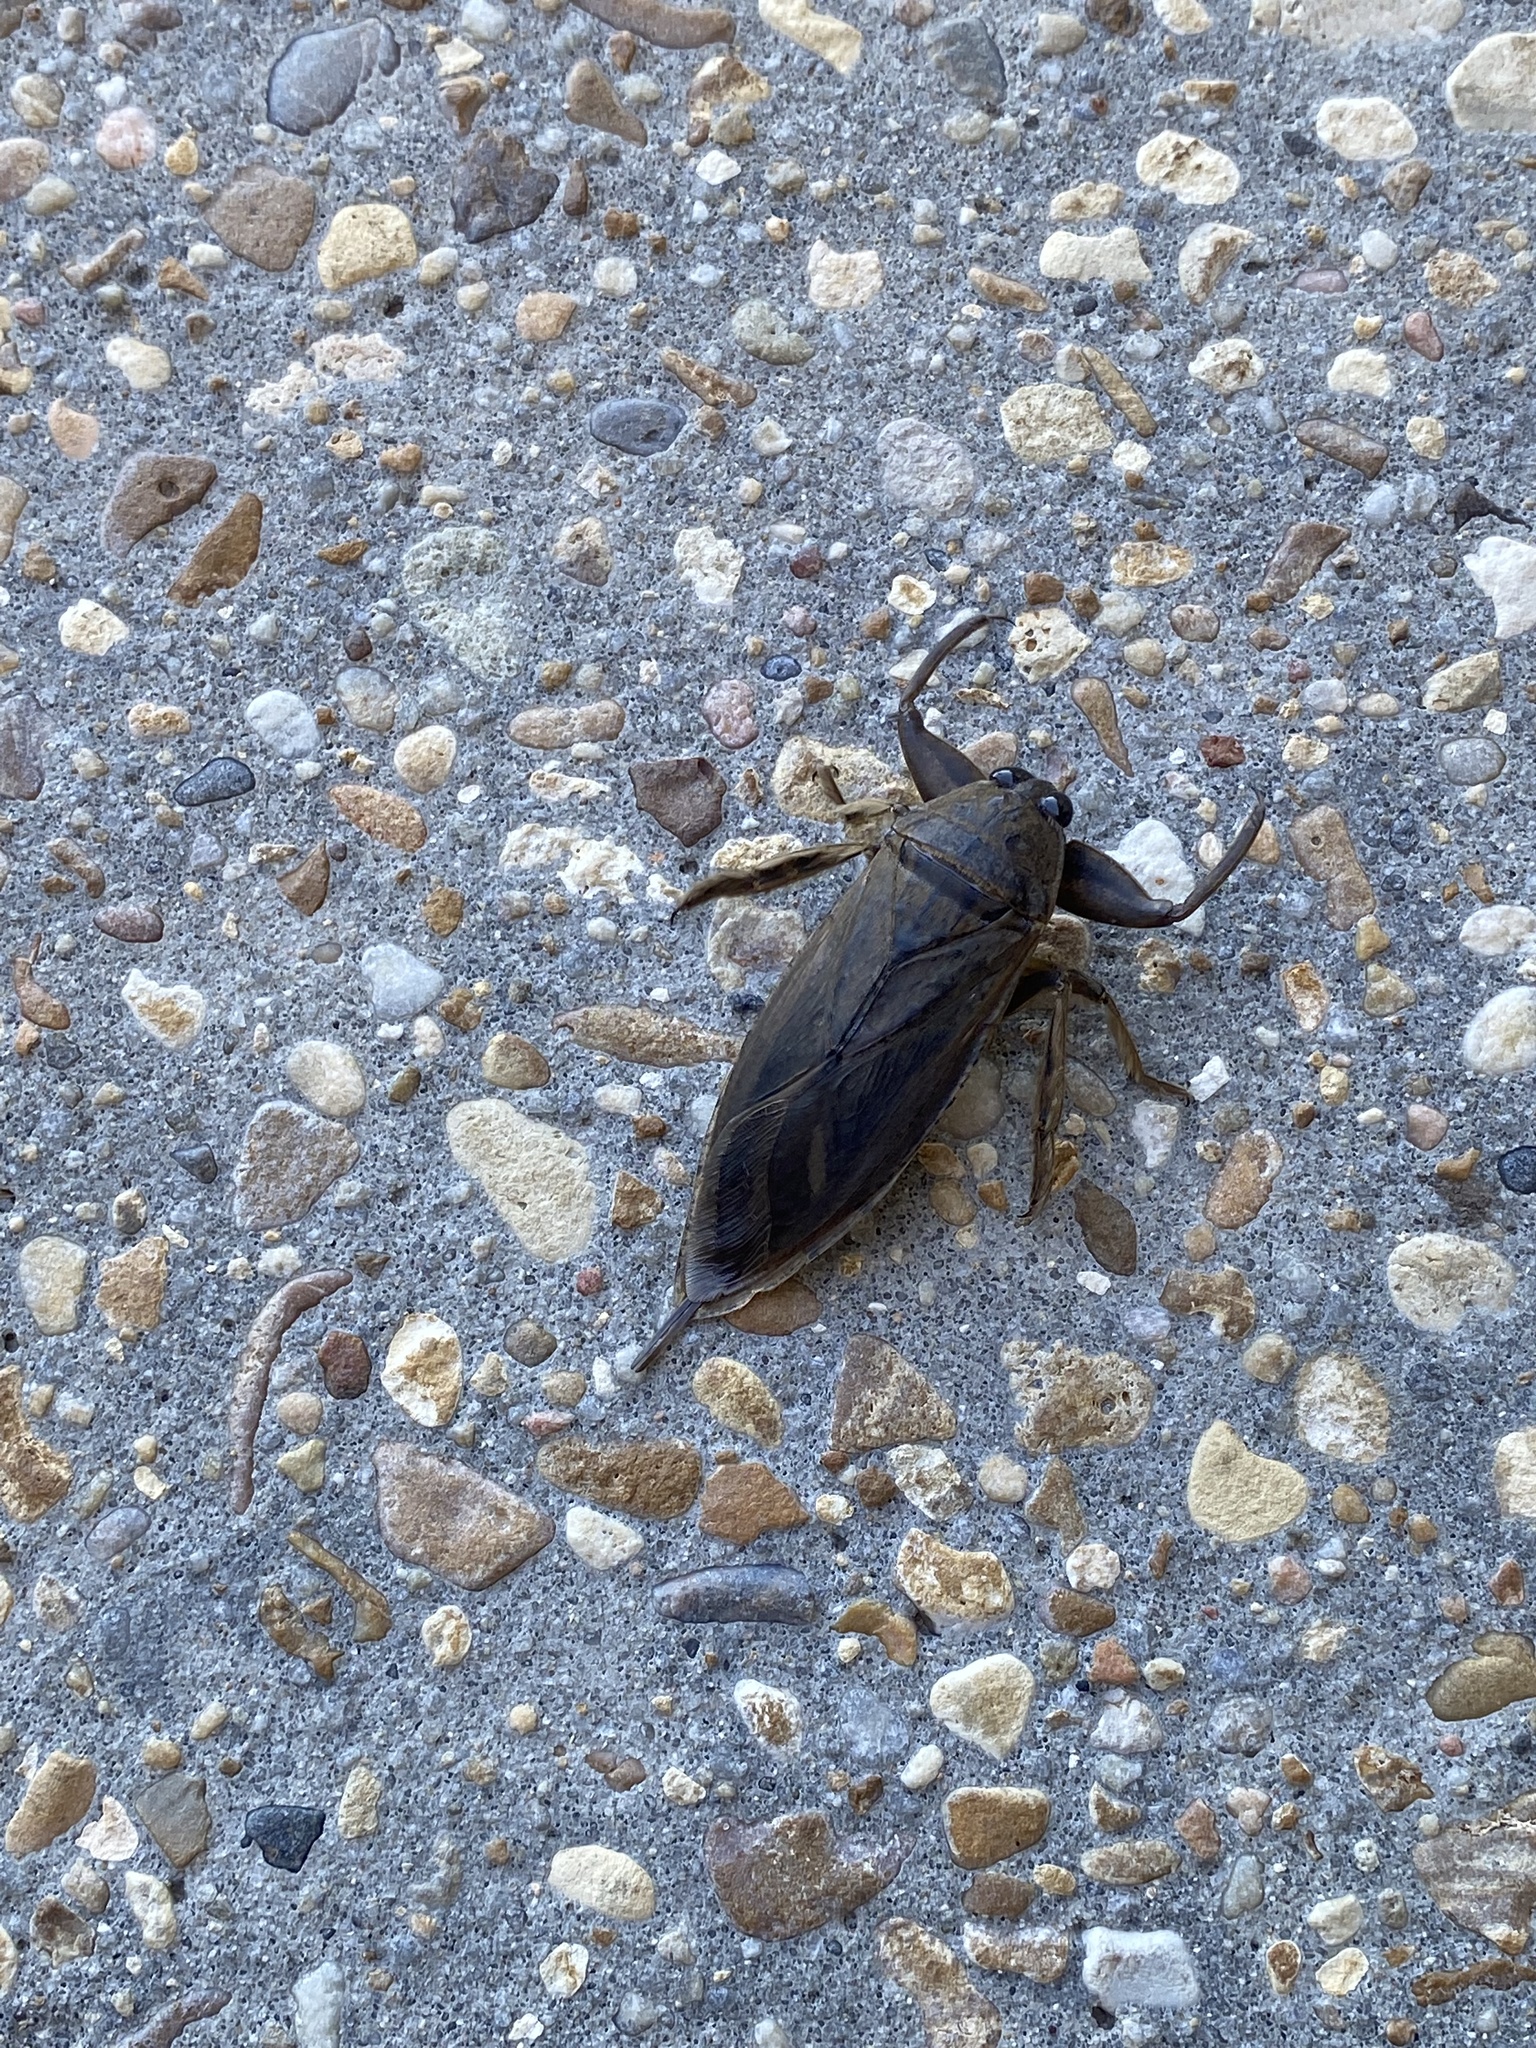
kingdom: Animalia
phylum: Arthropoda
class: Insecta
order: Hemiptera
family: Belostomatidae
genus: Lethocerus
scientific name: Lethocerus uhleri
